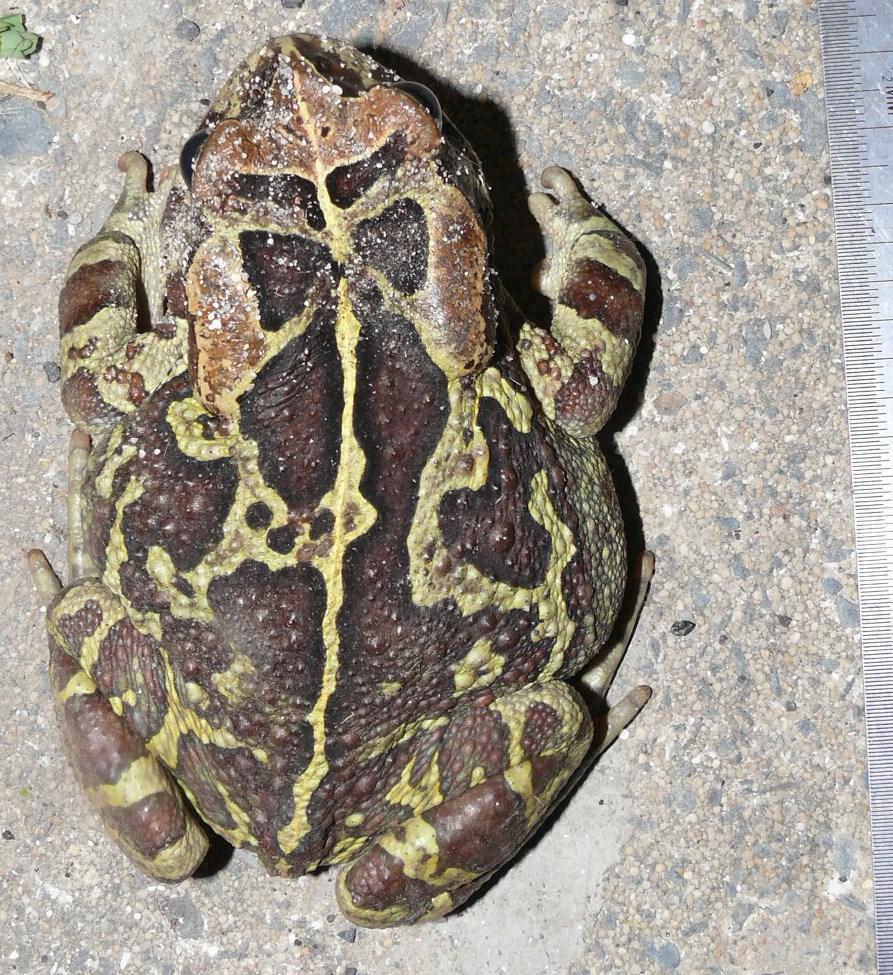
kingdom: Animalia
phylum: Chordata
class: Amphibia
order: Anura
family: Bufonidae
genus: Sclerophrys
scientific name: Sclerophrys pantherina
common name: Panther toad
